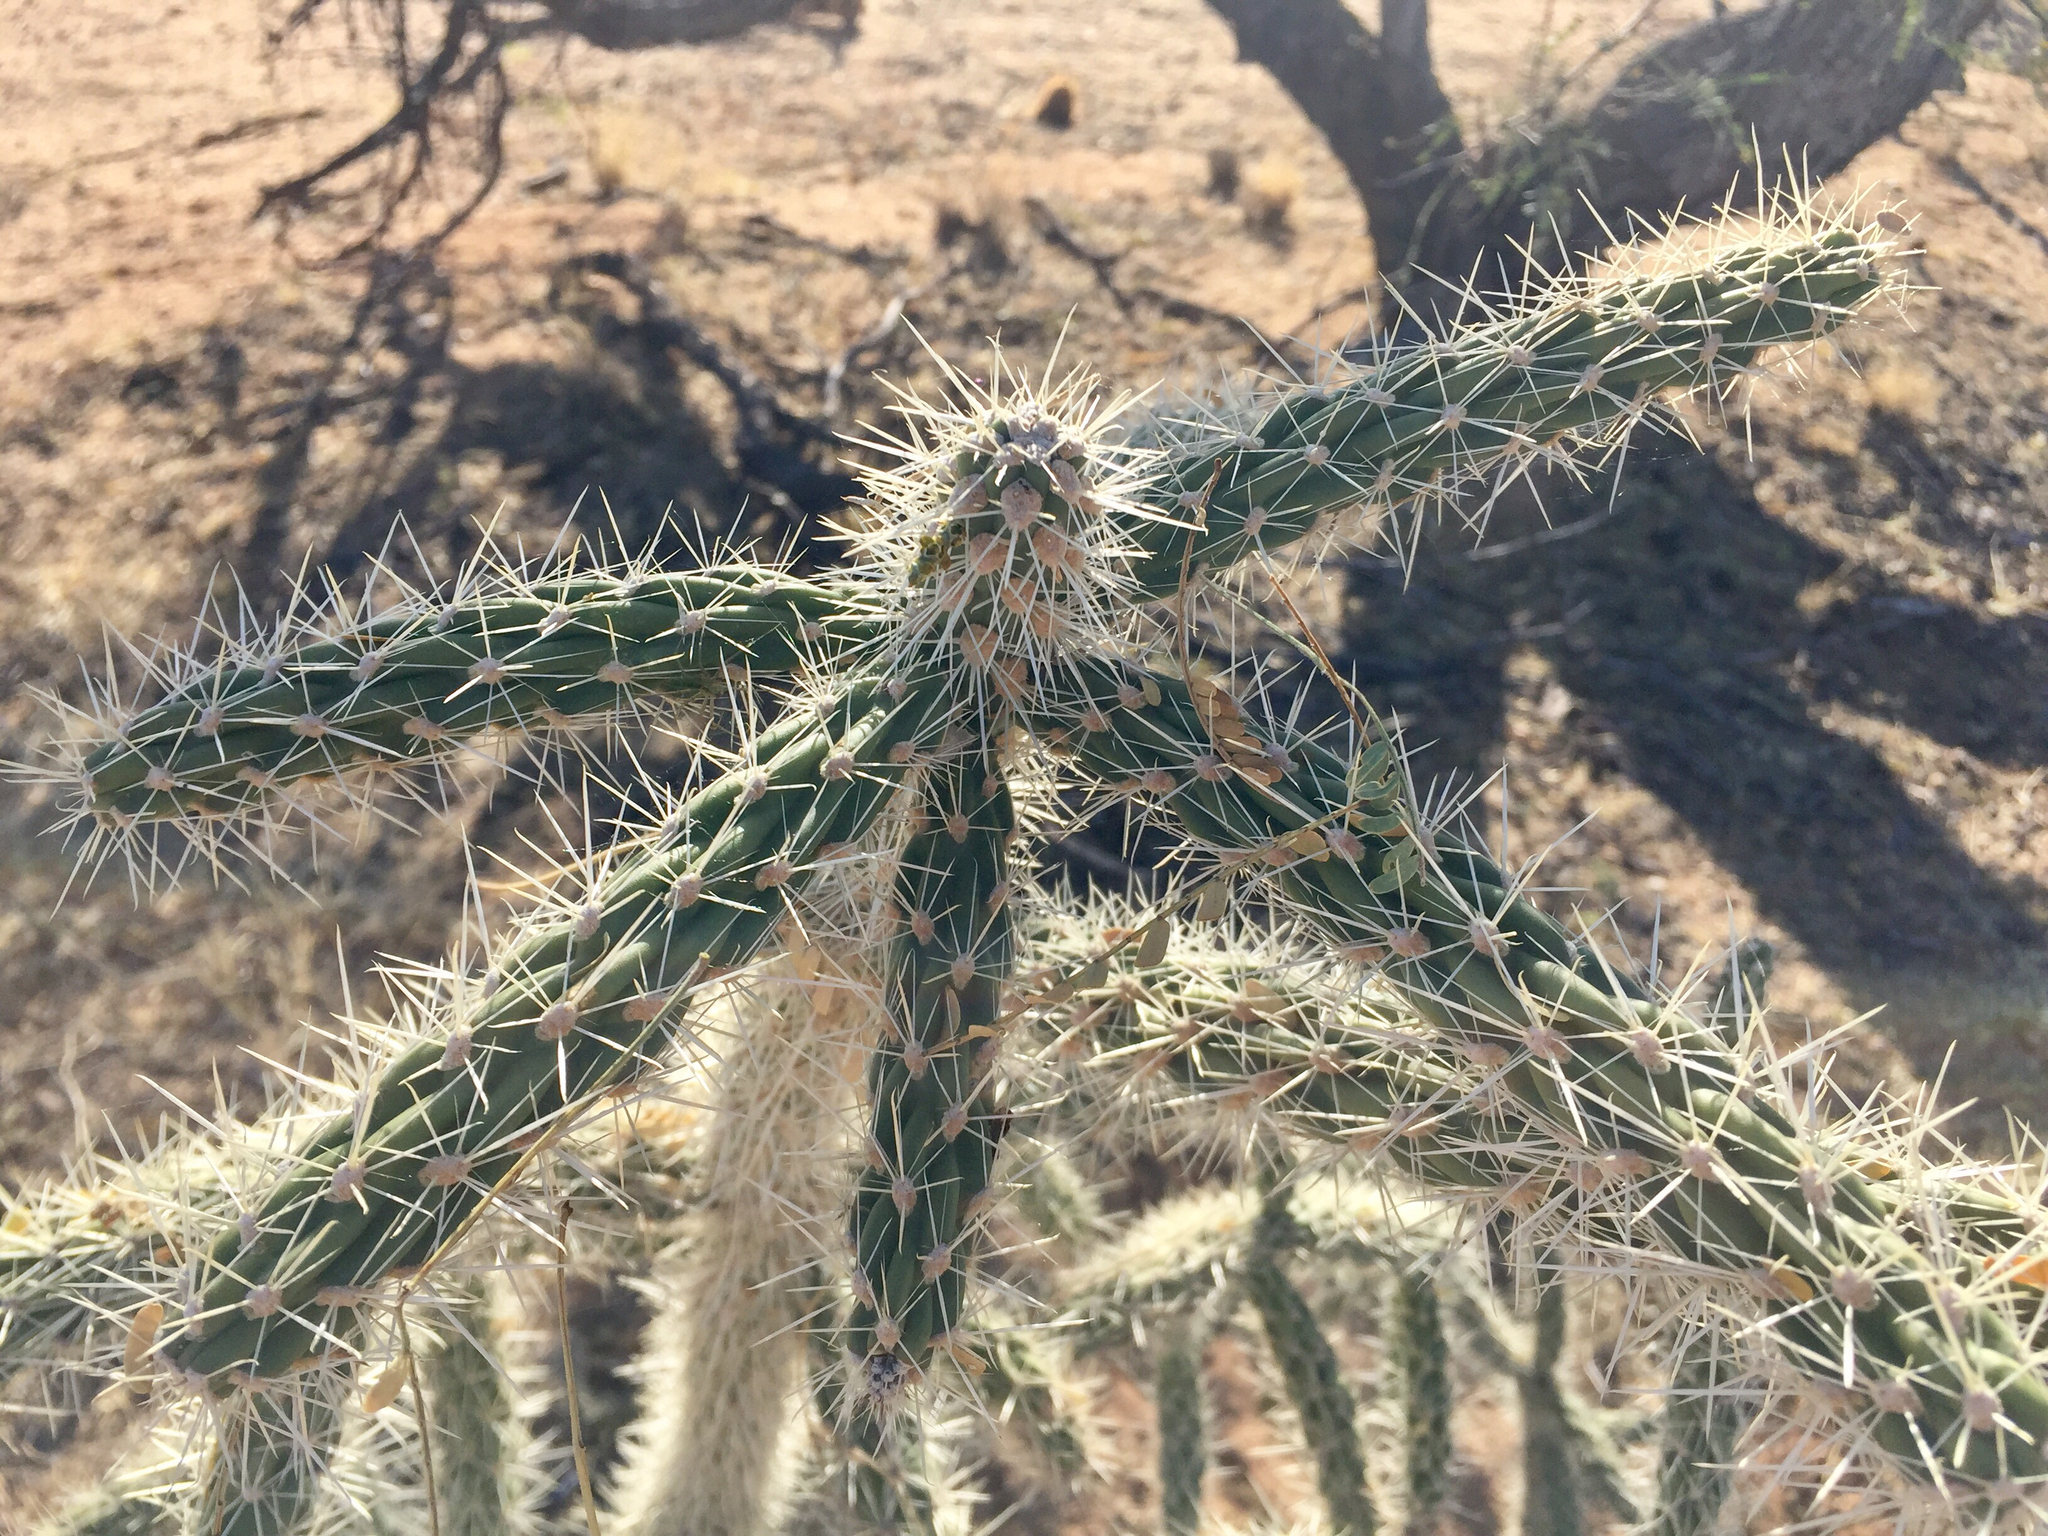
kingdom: Plantae
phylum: Tracheophyta
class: Magnoliopsida
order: Caryophyllales
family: Cactaceae
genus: Cylindropuntia
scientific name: Cylindropuntia imbricata
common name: Candelabrum cactus
